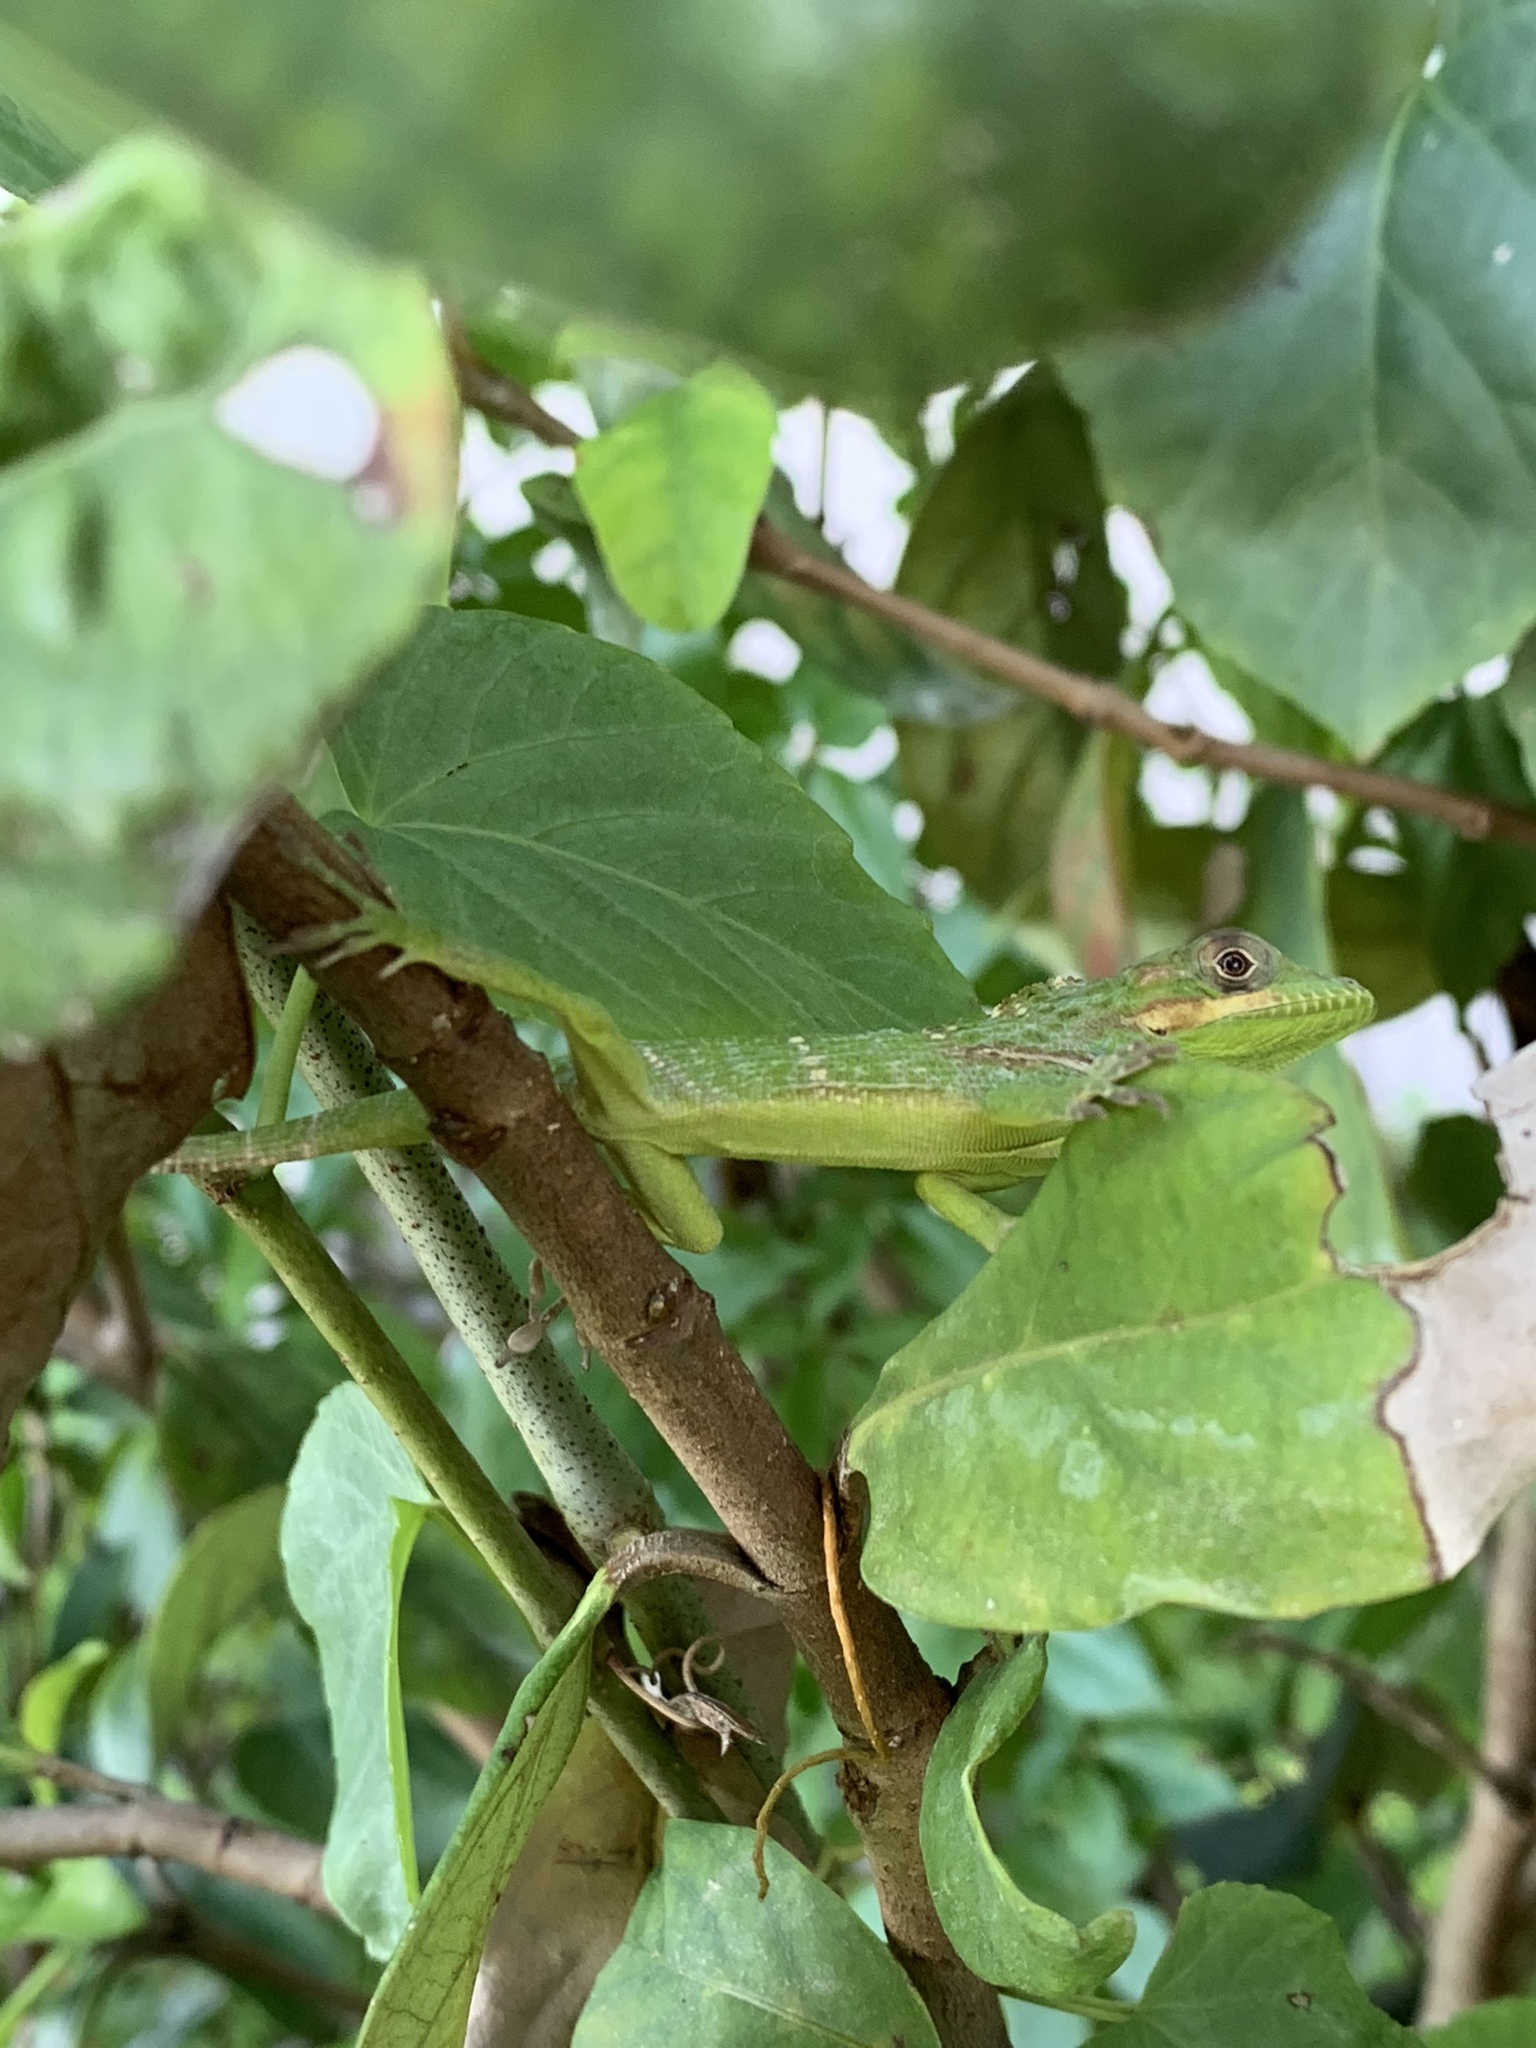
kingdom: Animalia
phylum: Chordata
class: Squamata
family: Dactyloidae
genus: Anolis
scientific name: Anolis equestris
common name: Knight anole
